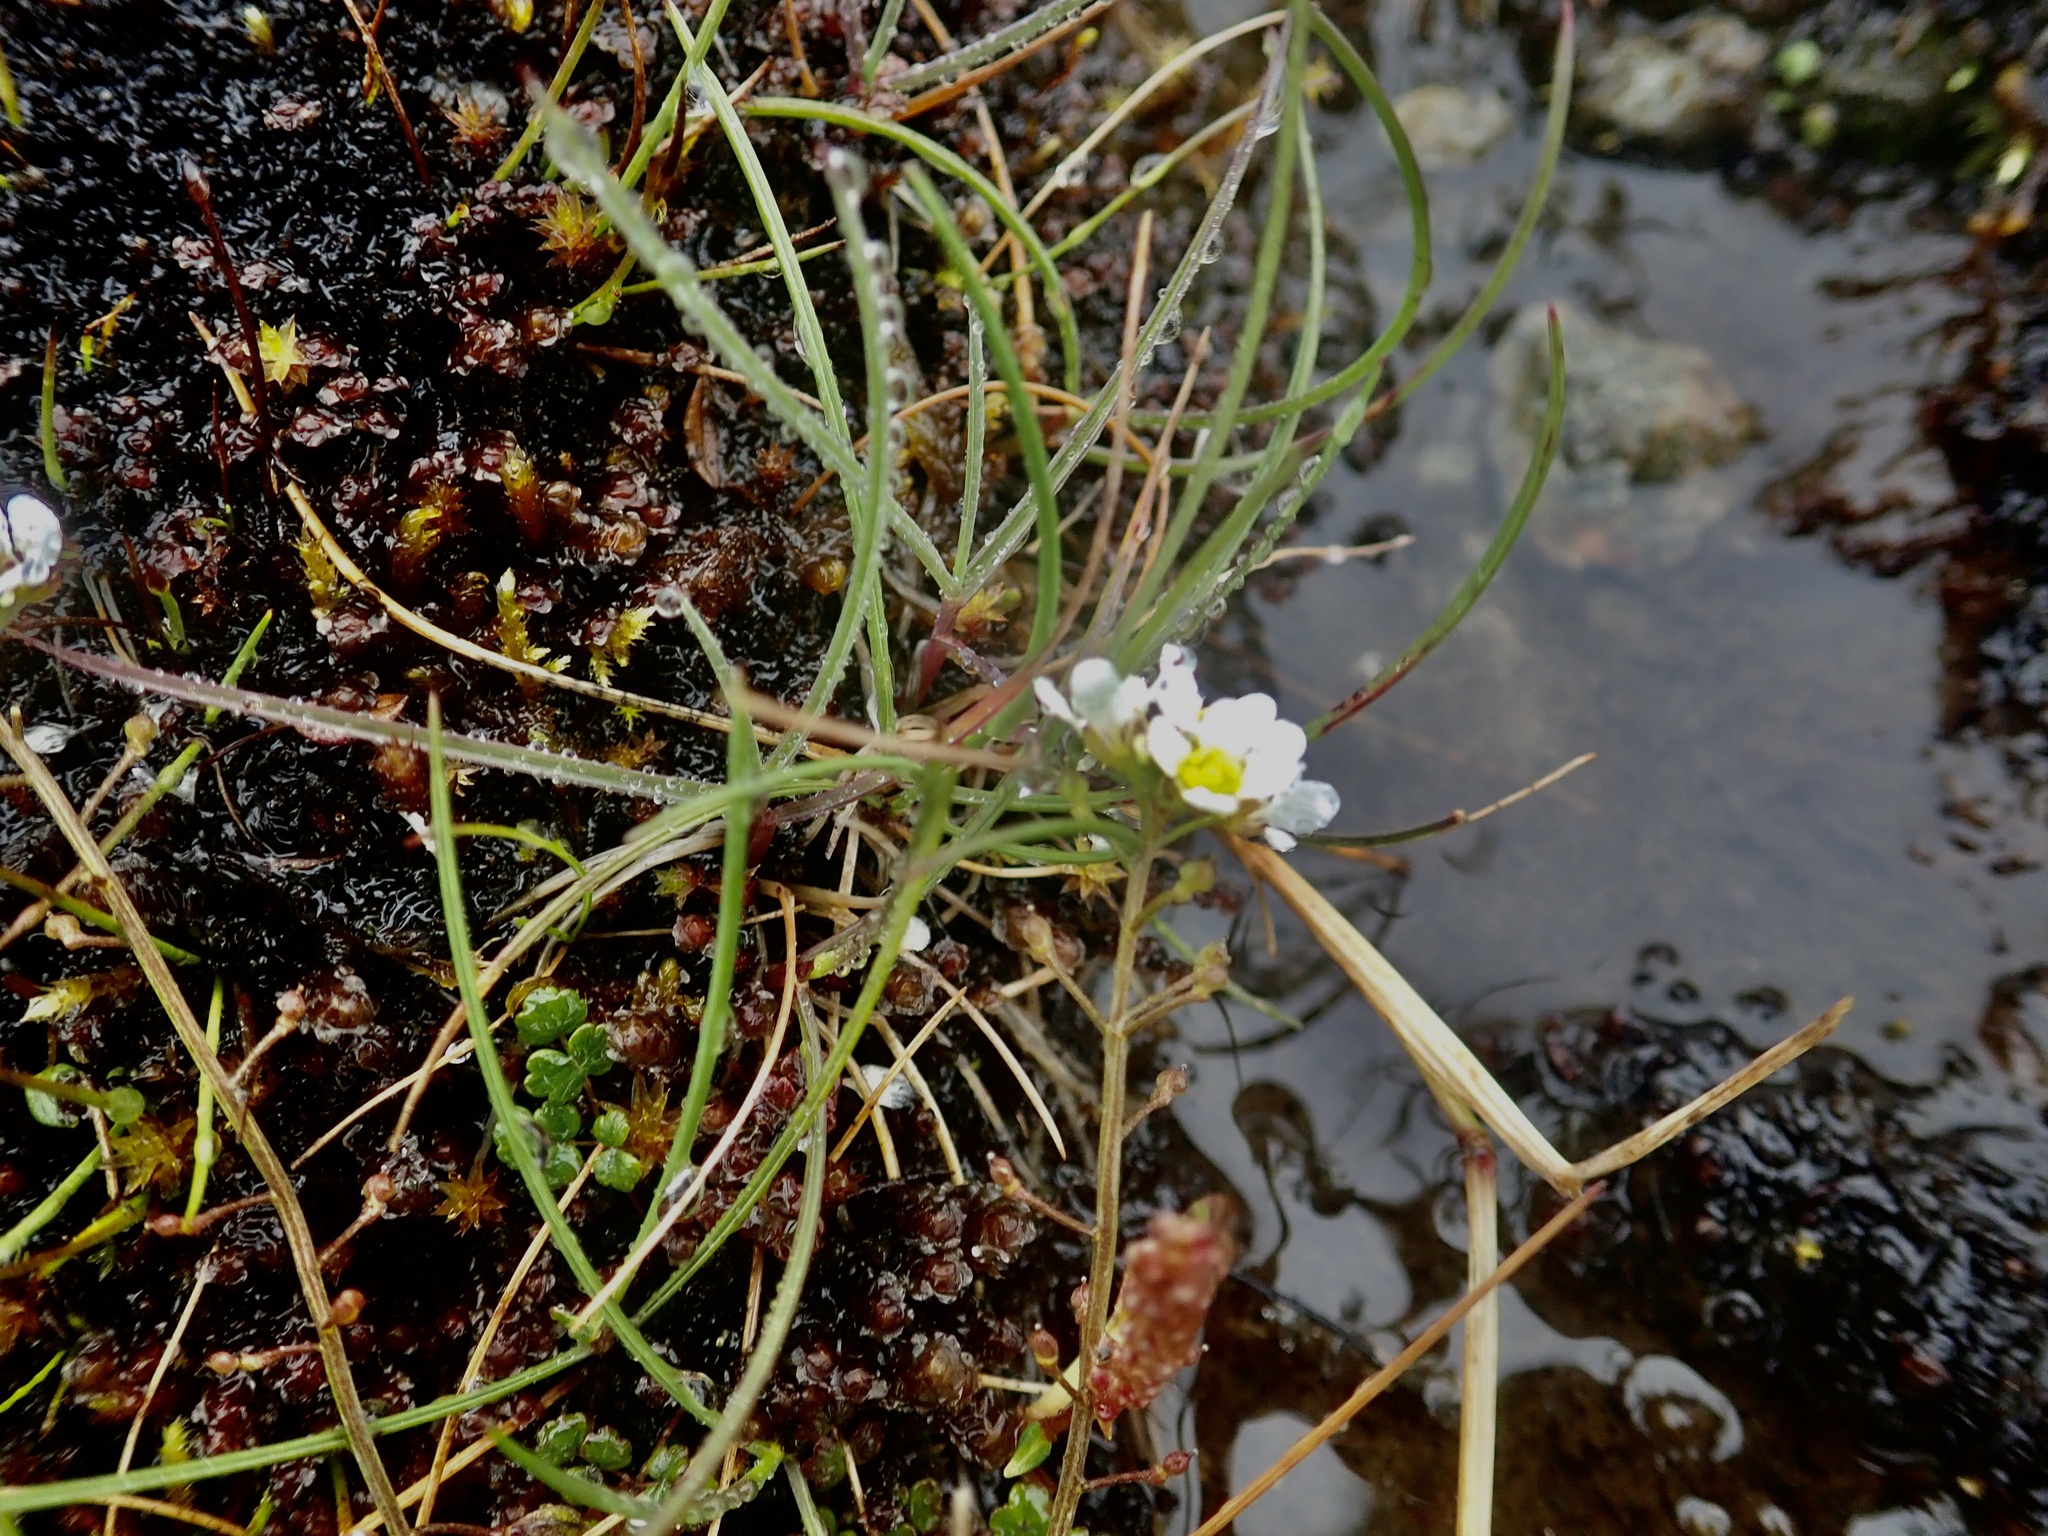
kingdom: Plantae
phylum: Tracheophyta
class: Magnoliopsida
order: Brassicales
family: Brassicaceae
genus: Cochlearia
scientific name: Cochlearia micacea
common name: Mountain scurvygrass
